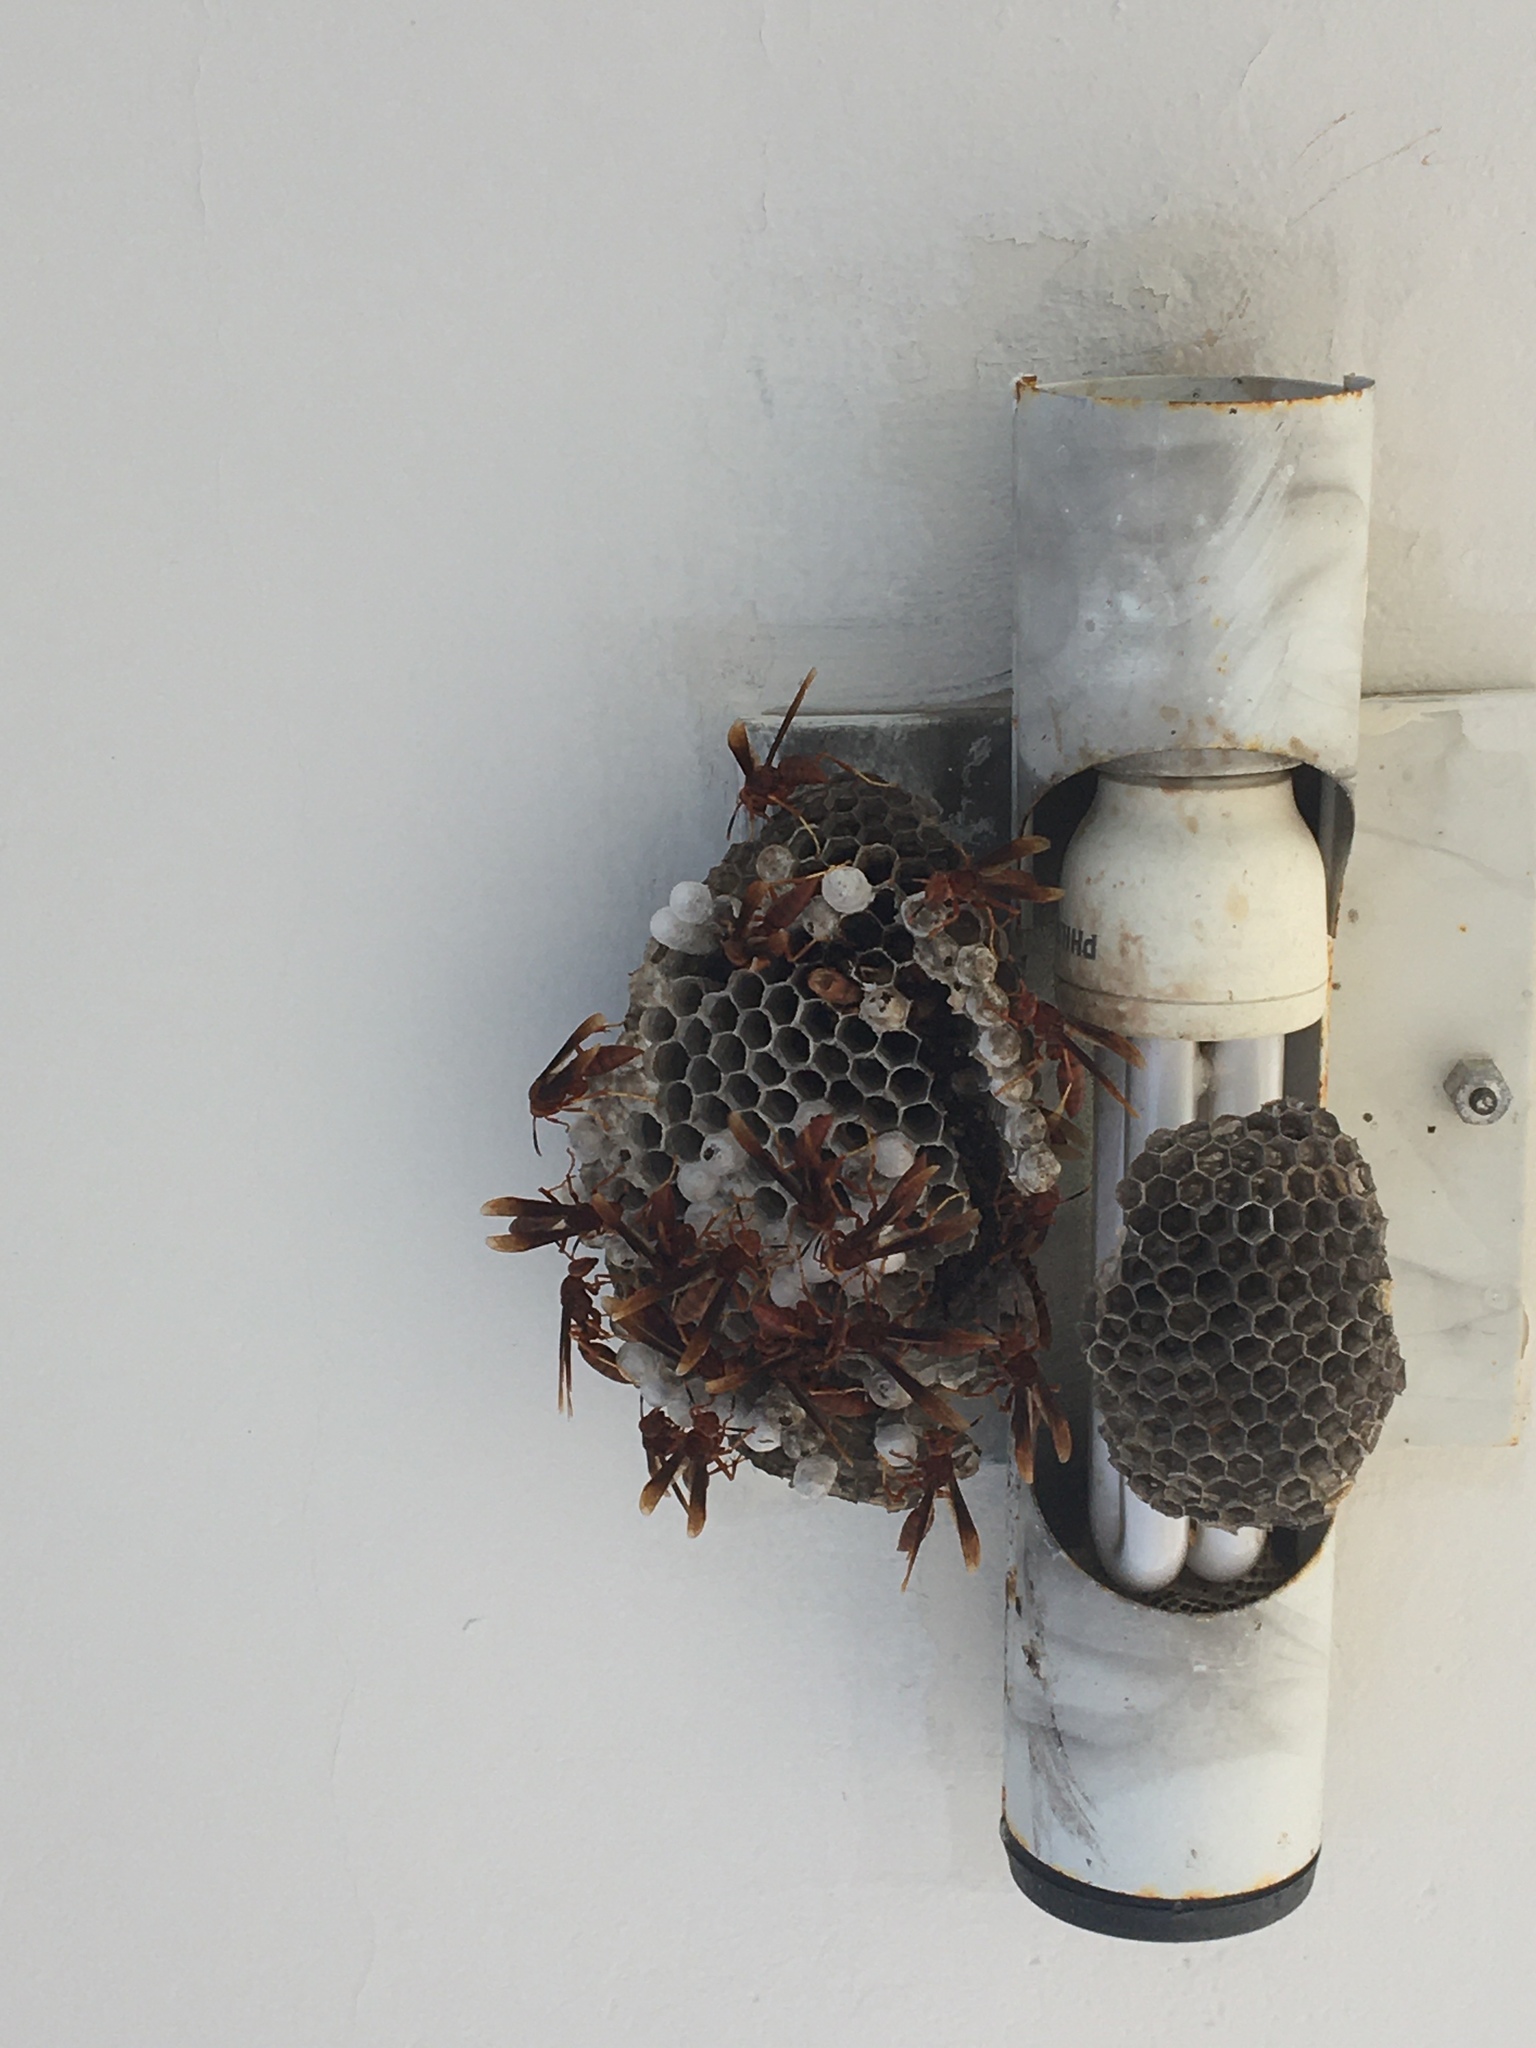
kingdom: Animalia
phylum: Arthropoda
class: Insecta
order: Hymenoptera
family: Eumenidae
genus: Polistes
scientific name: Polistes canadensis
